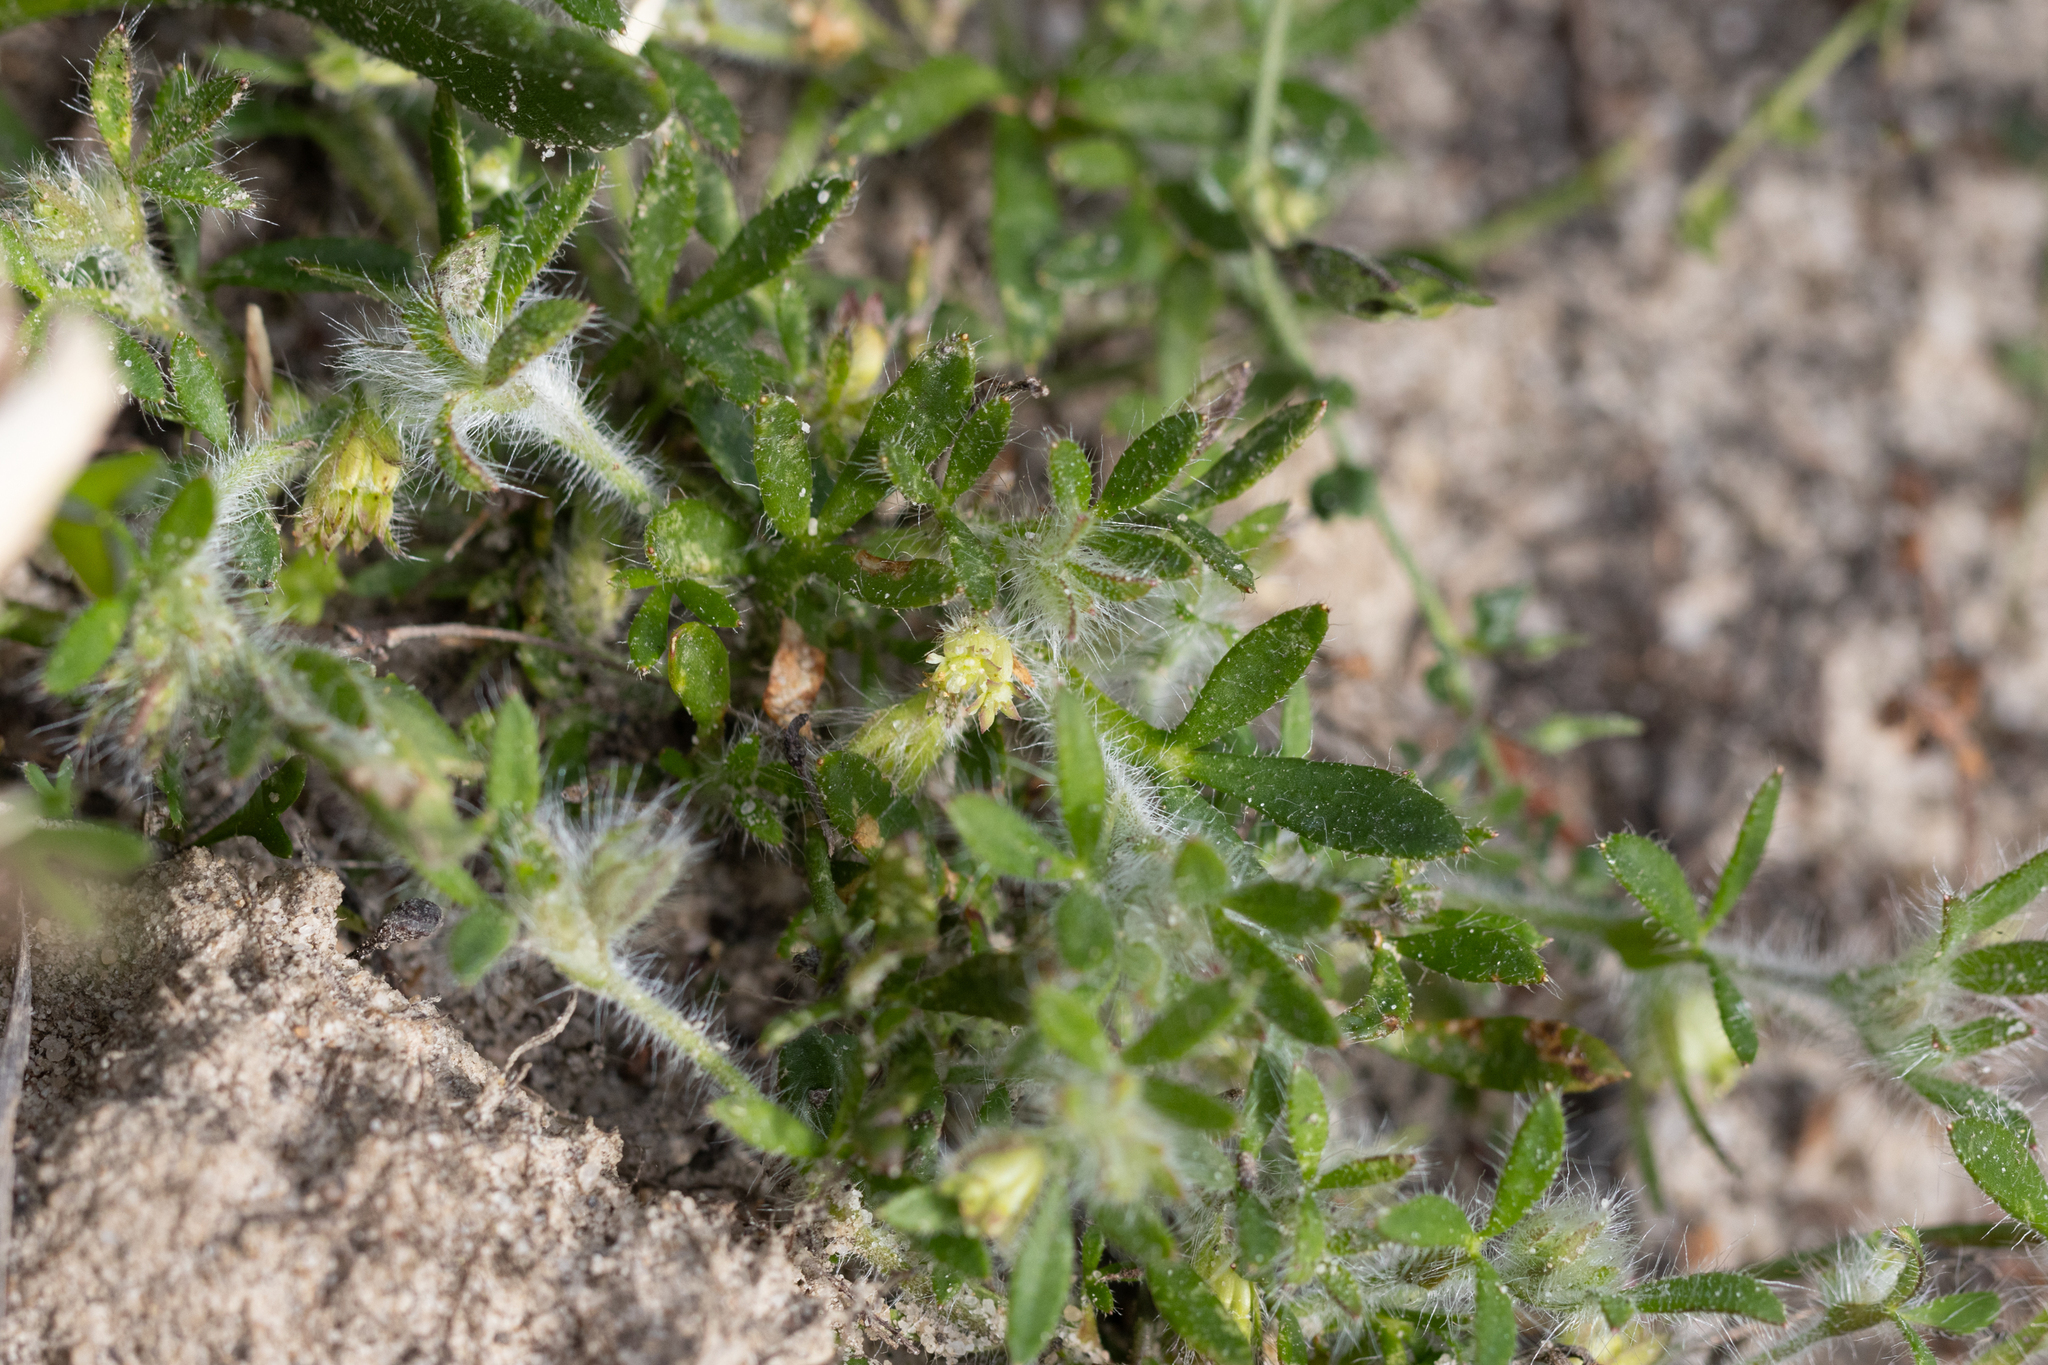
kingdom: Plantae
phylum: Tracheophyta
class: Magnoliopsida
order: Apiales
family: Apiaceae
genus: Xanthosia
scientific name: Xanthosia huegelii
